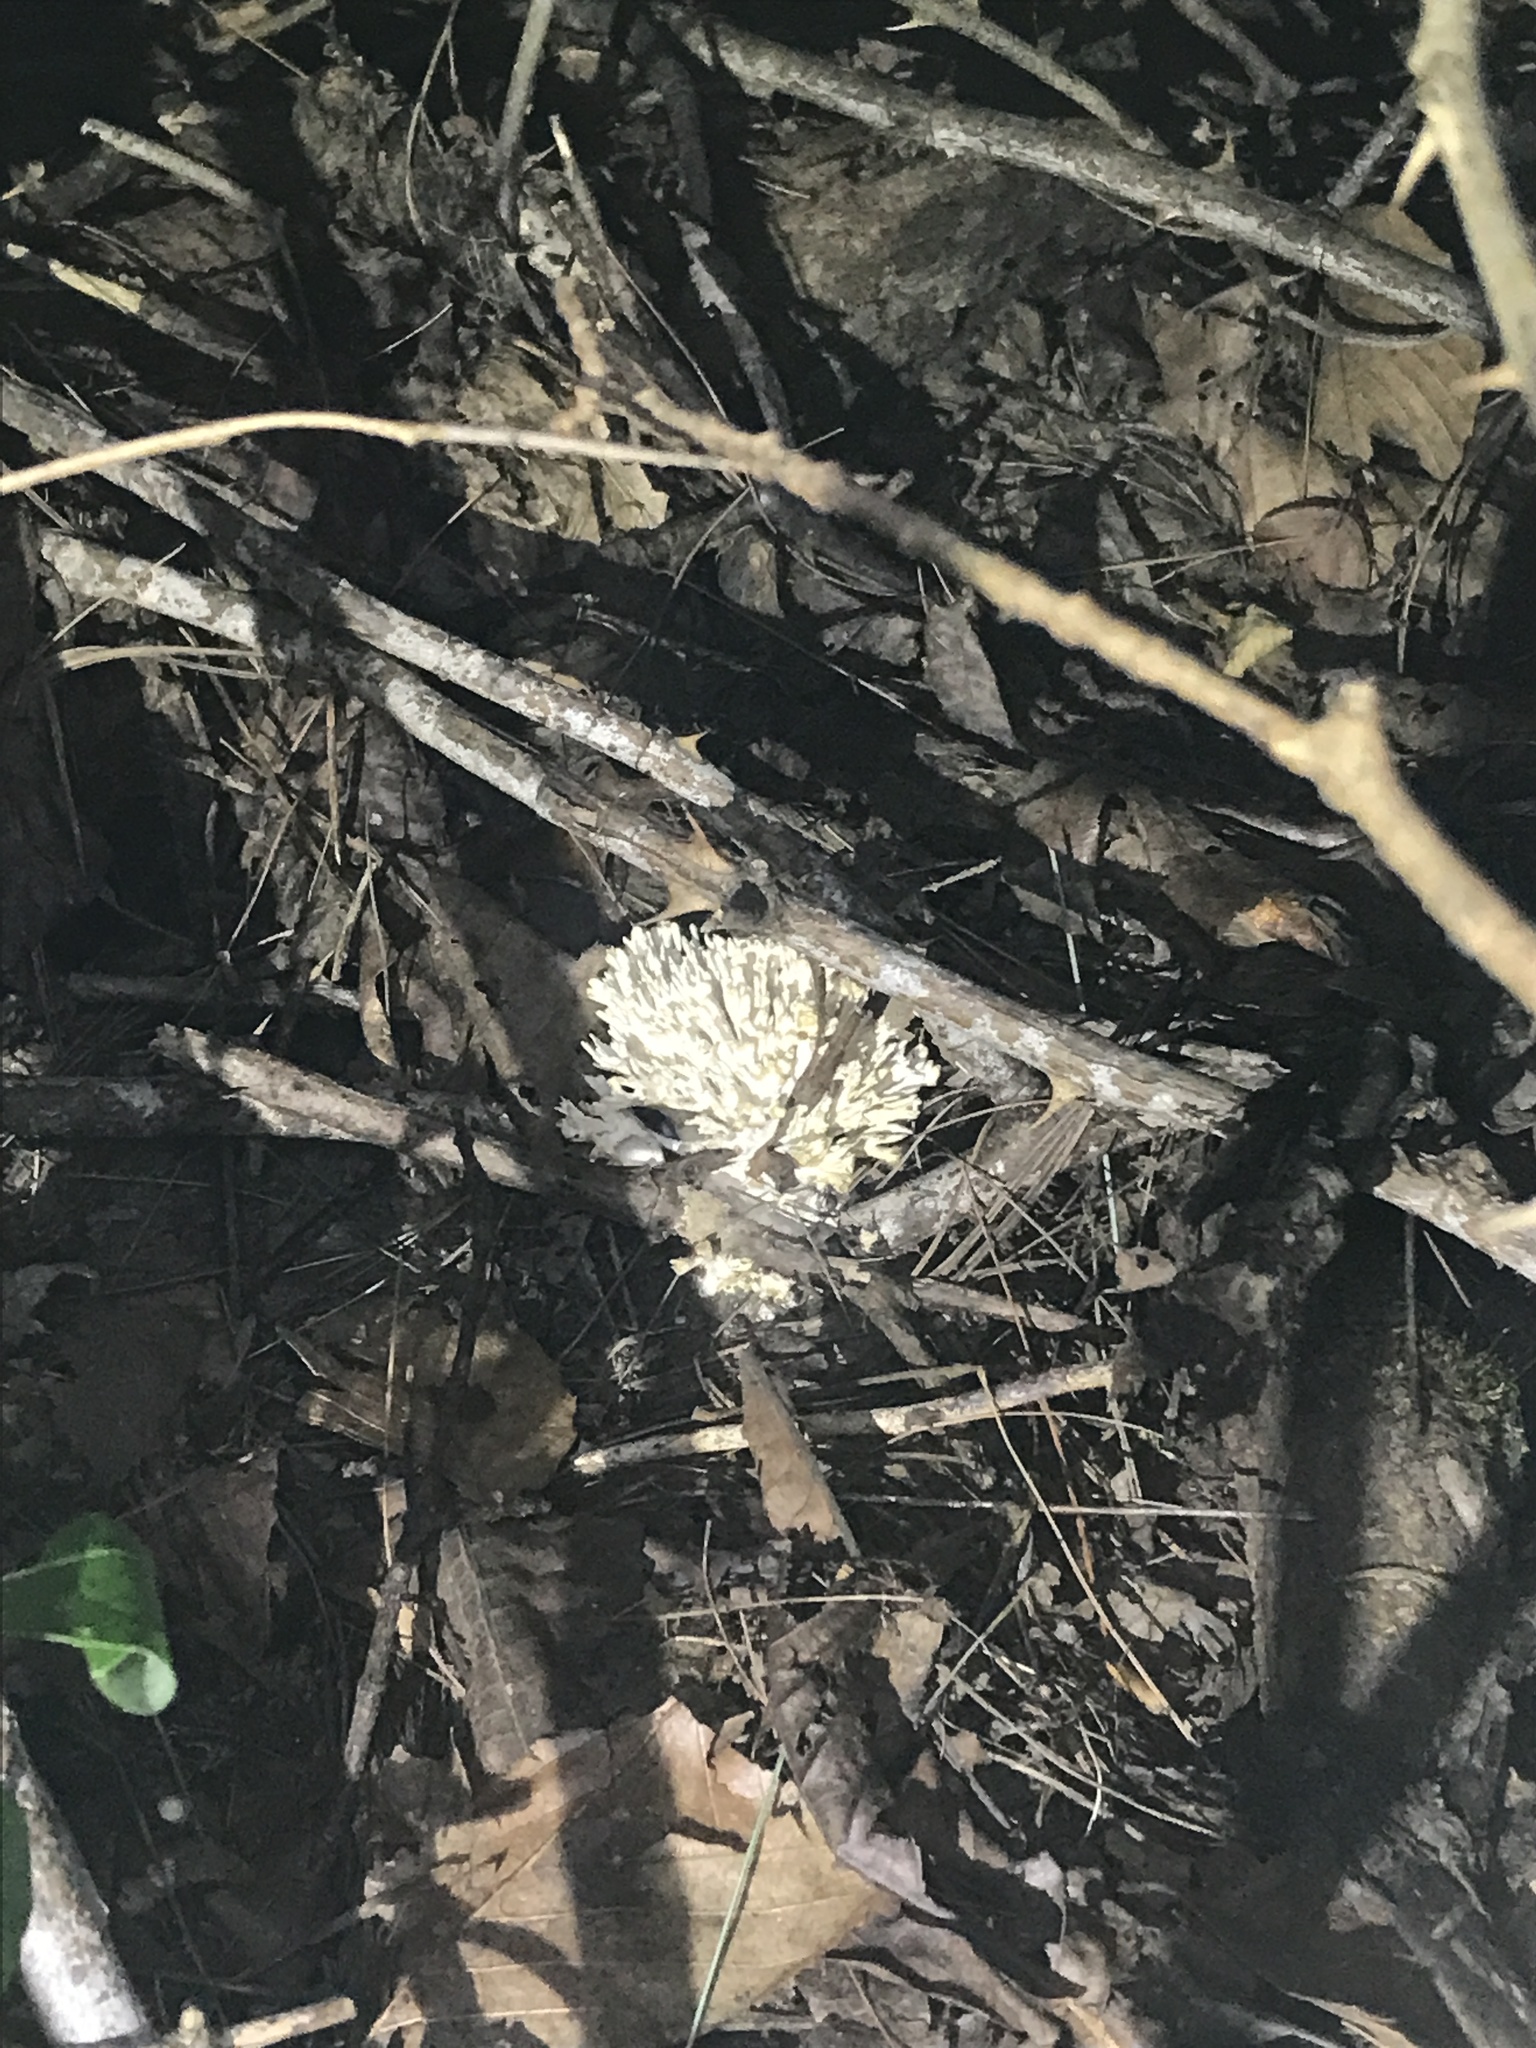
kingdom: Fungi
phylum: Basidiomycota
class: Agaricomycetes
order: Sebacinales
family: Sebacinaceae
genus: Sebacina
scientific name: Sebacina schweinitzii
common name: Jellied false coral fungus
